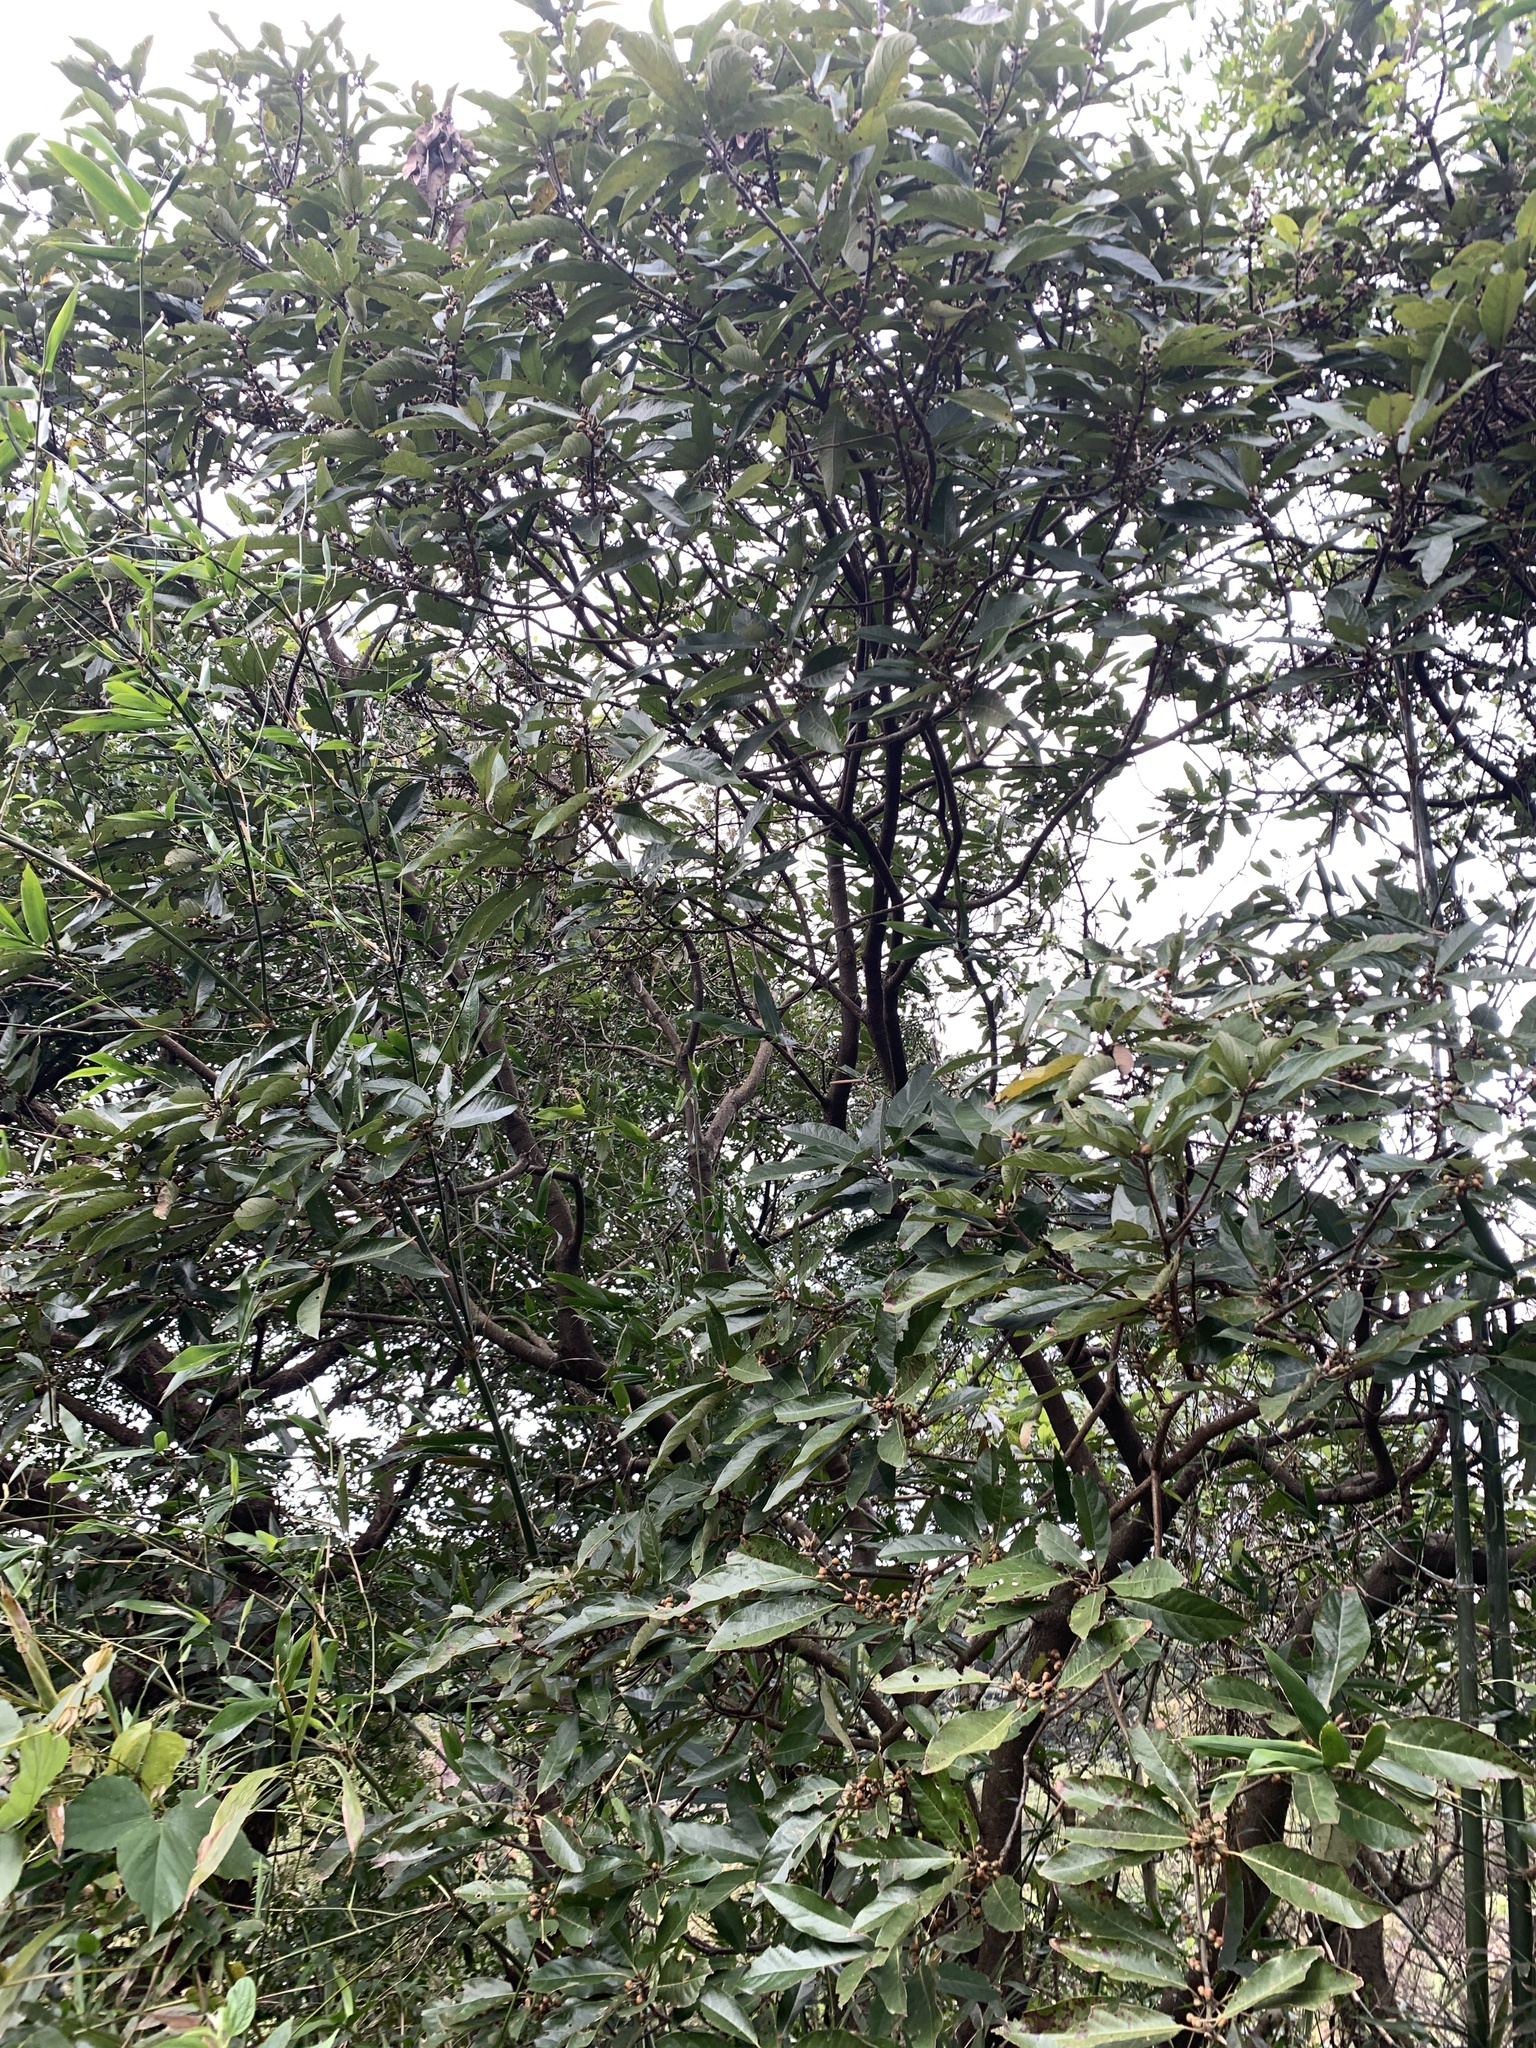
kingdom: Plantae
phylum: Tracheophyta
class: Magnoliopsida
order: Laurales
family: Lauraceae
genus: Lindera
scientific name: Lindera megaphylla
